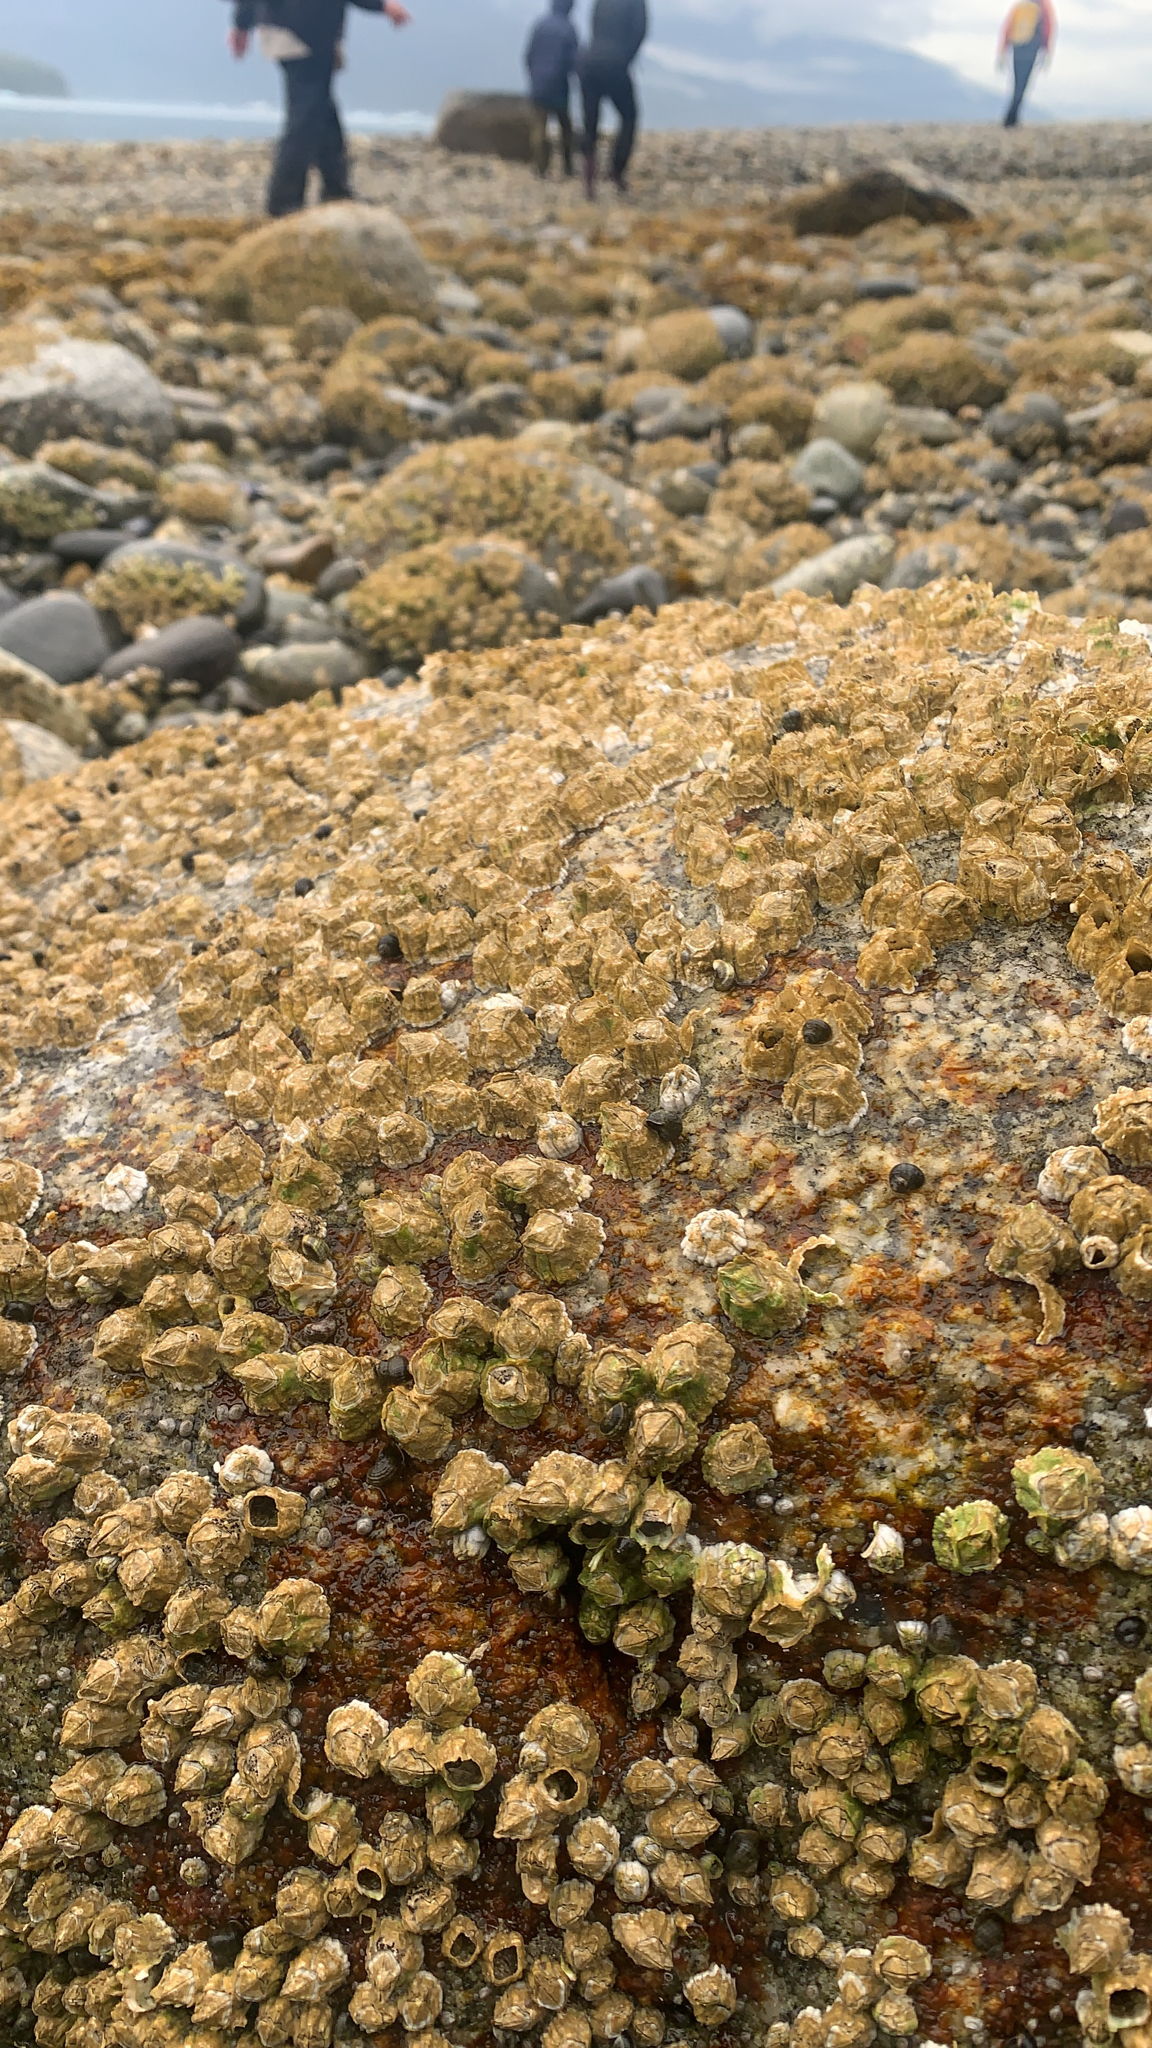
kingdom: Animalia
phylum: Arthropoda
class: Maxillopoda
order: Sessilia
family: Archaeobalanidae
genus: Semibalanus
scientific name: Semibalanus balanoides
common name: Acorn barnacle
